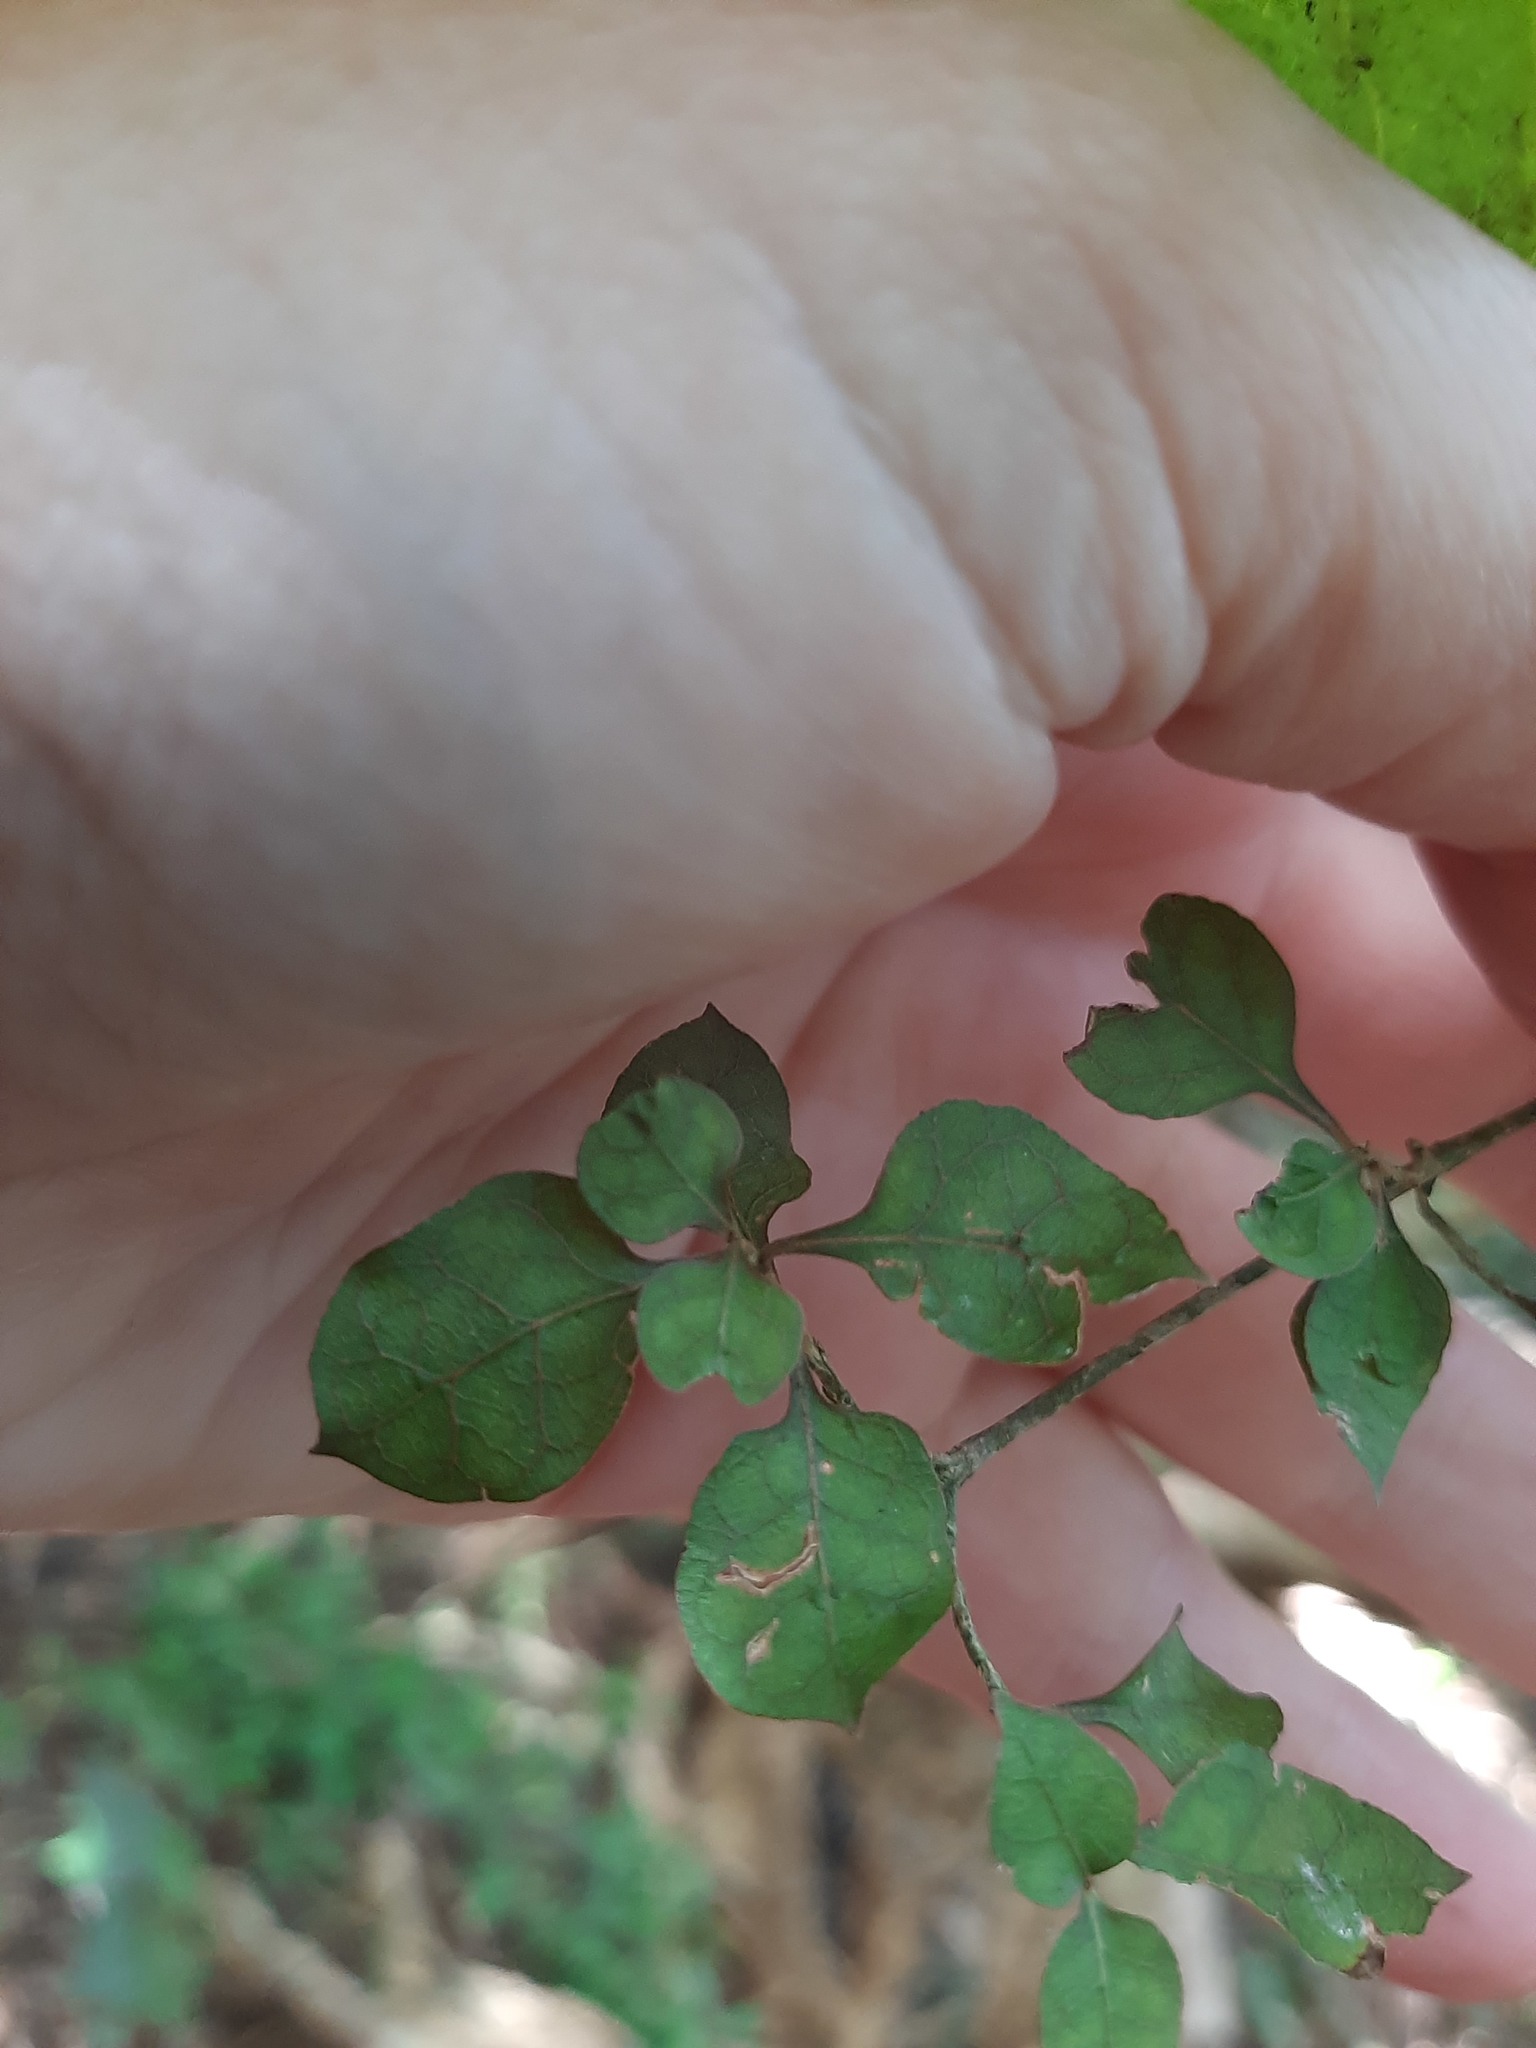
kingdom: Plantae
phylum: Tracheophyta
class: Magnoliopsida
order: Gentianales
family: Rubiaceae
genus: Coprosma
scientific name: Coprosma areolata
